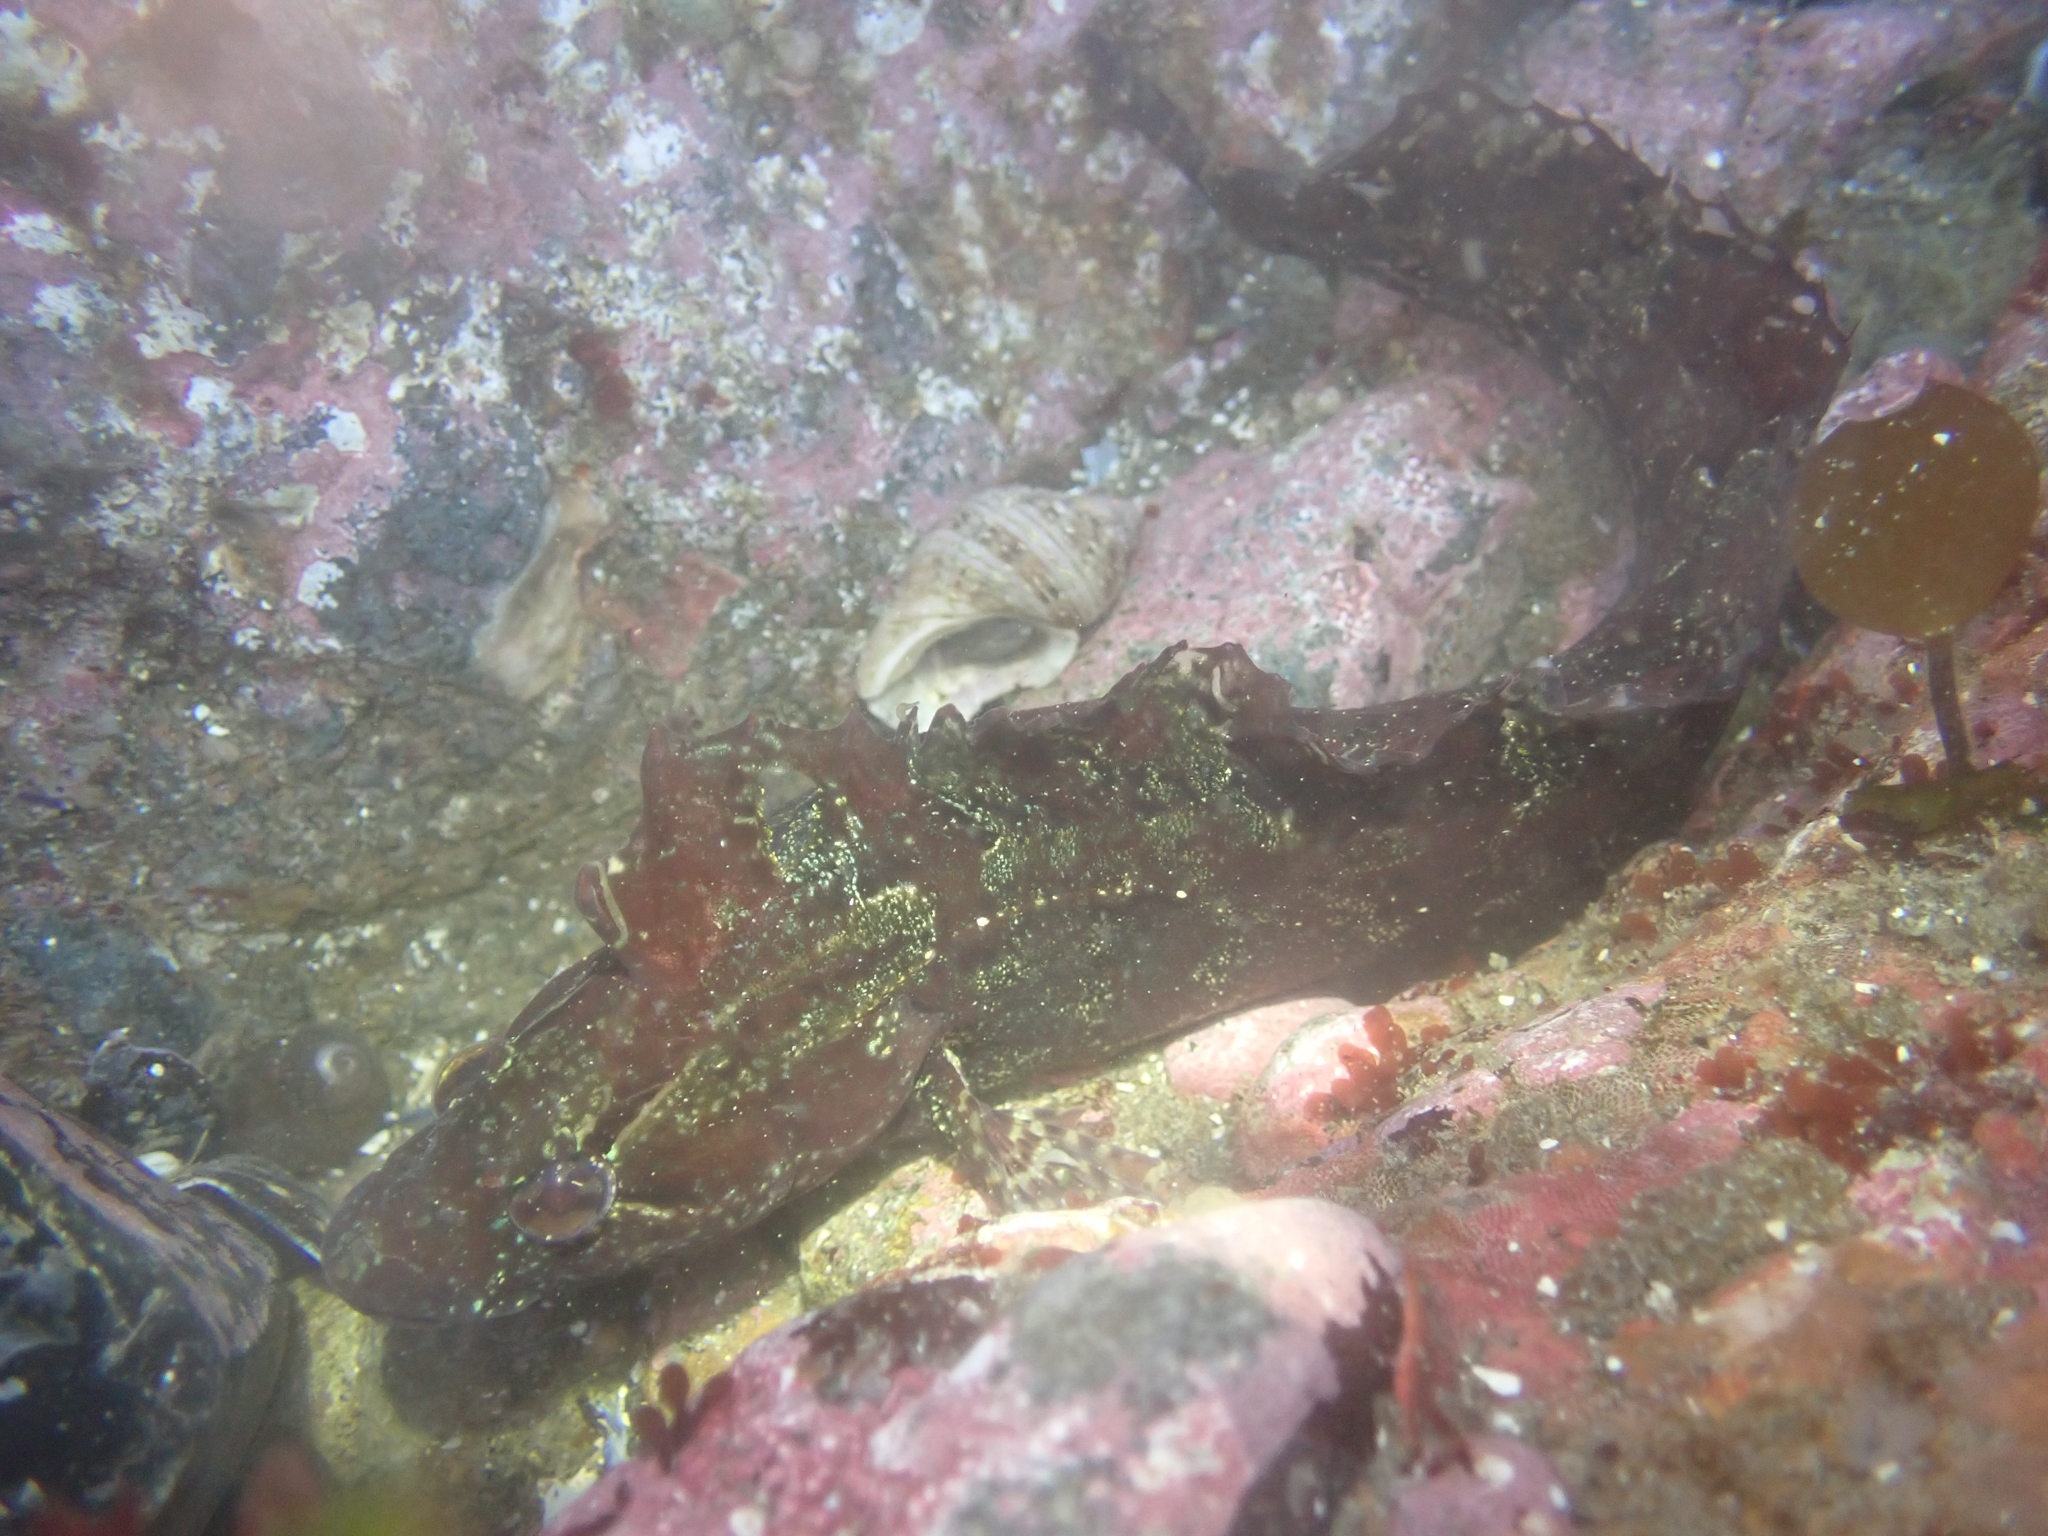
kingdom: Animalia
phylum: Chordata
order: Perciformes
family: Clinidae
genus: Gibbonsia
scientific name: Gibbonsia metzi
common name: Striped kelpfish
